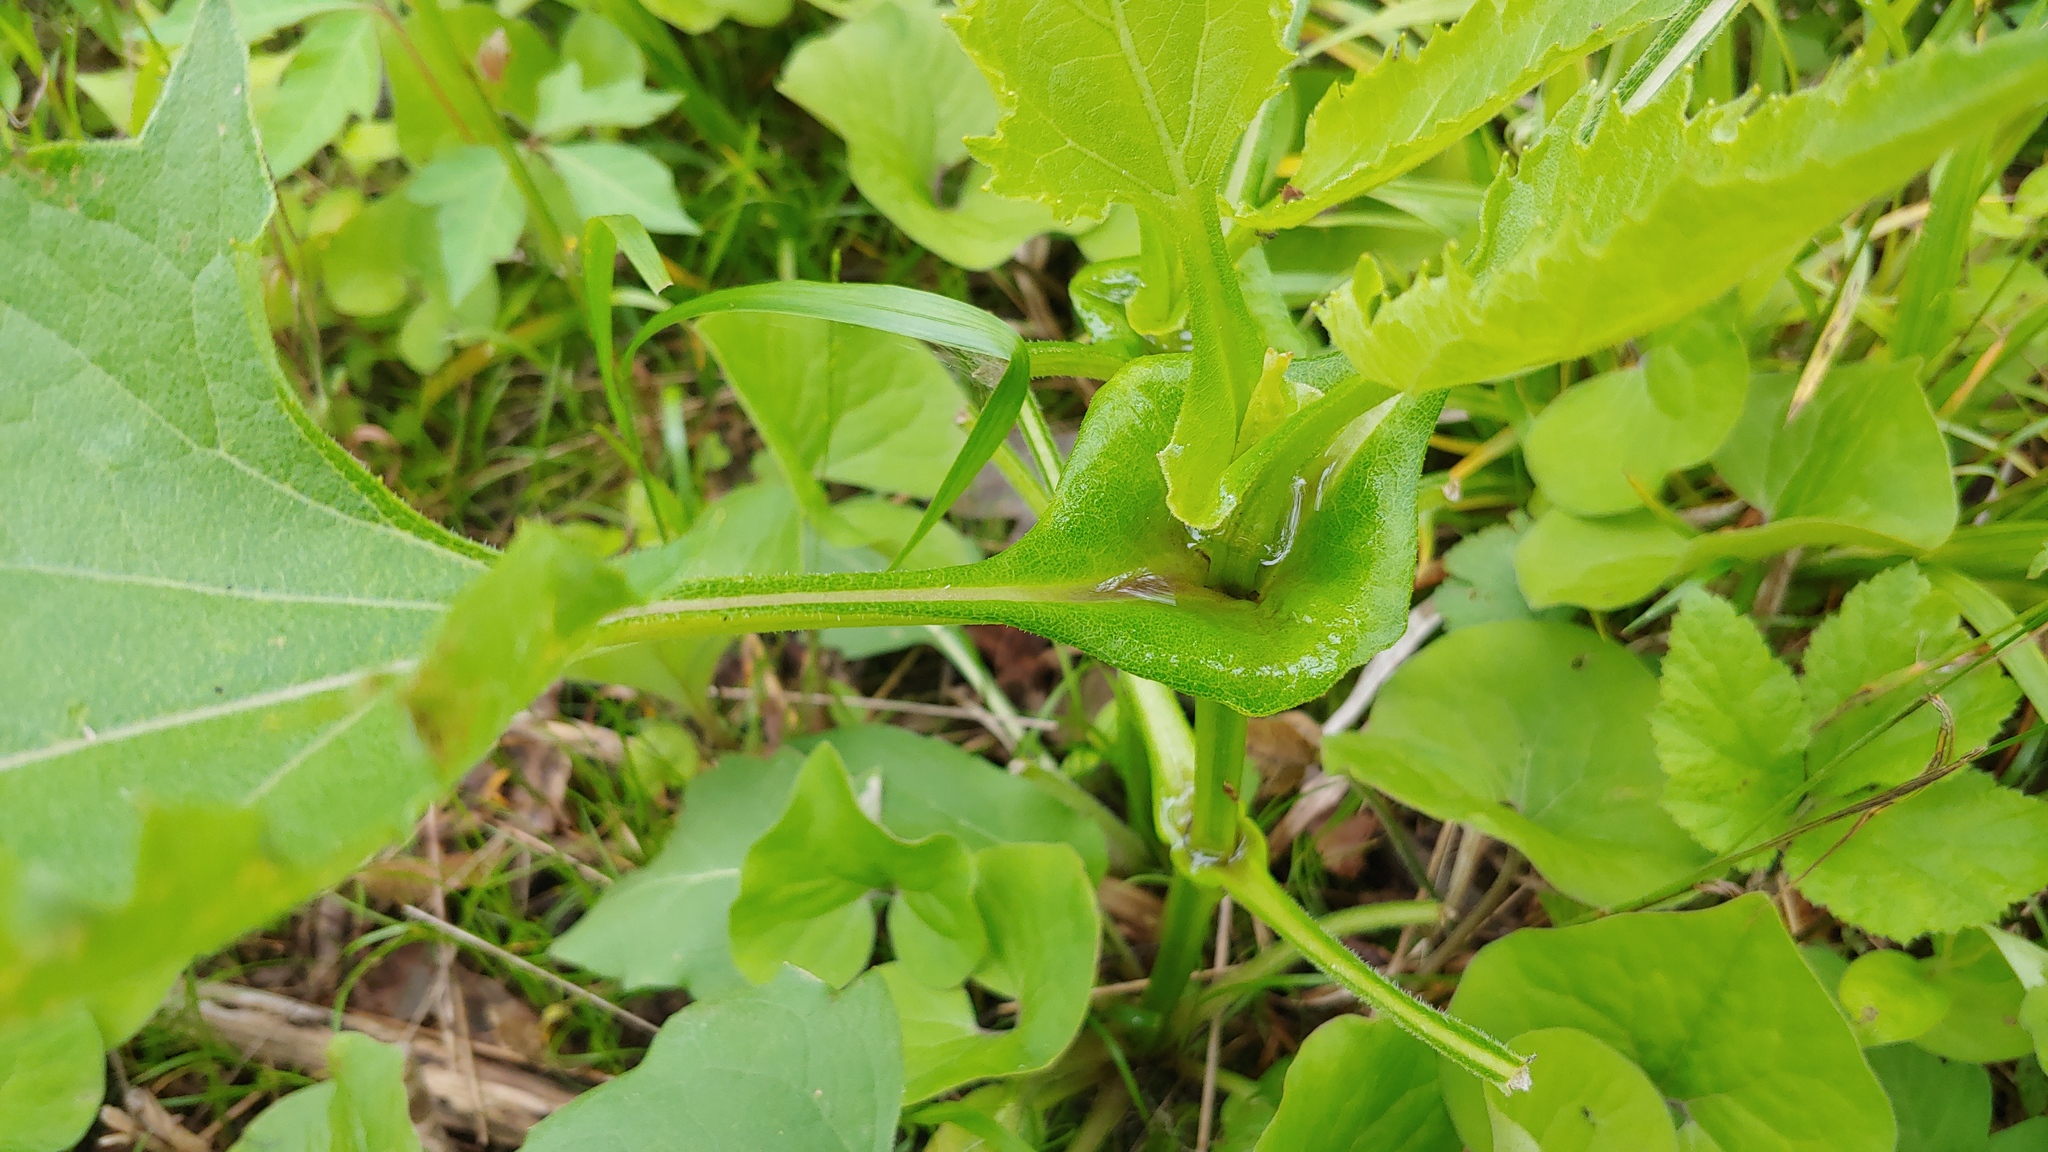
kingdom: Plantae
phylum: Tracheophyta
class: Magnoliopsida
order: Asterales
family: Asteraceae
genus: Silphium
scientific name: Silphium perfoliatum
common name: Cup-plant
